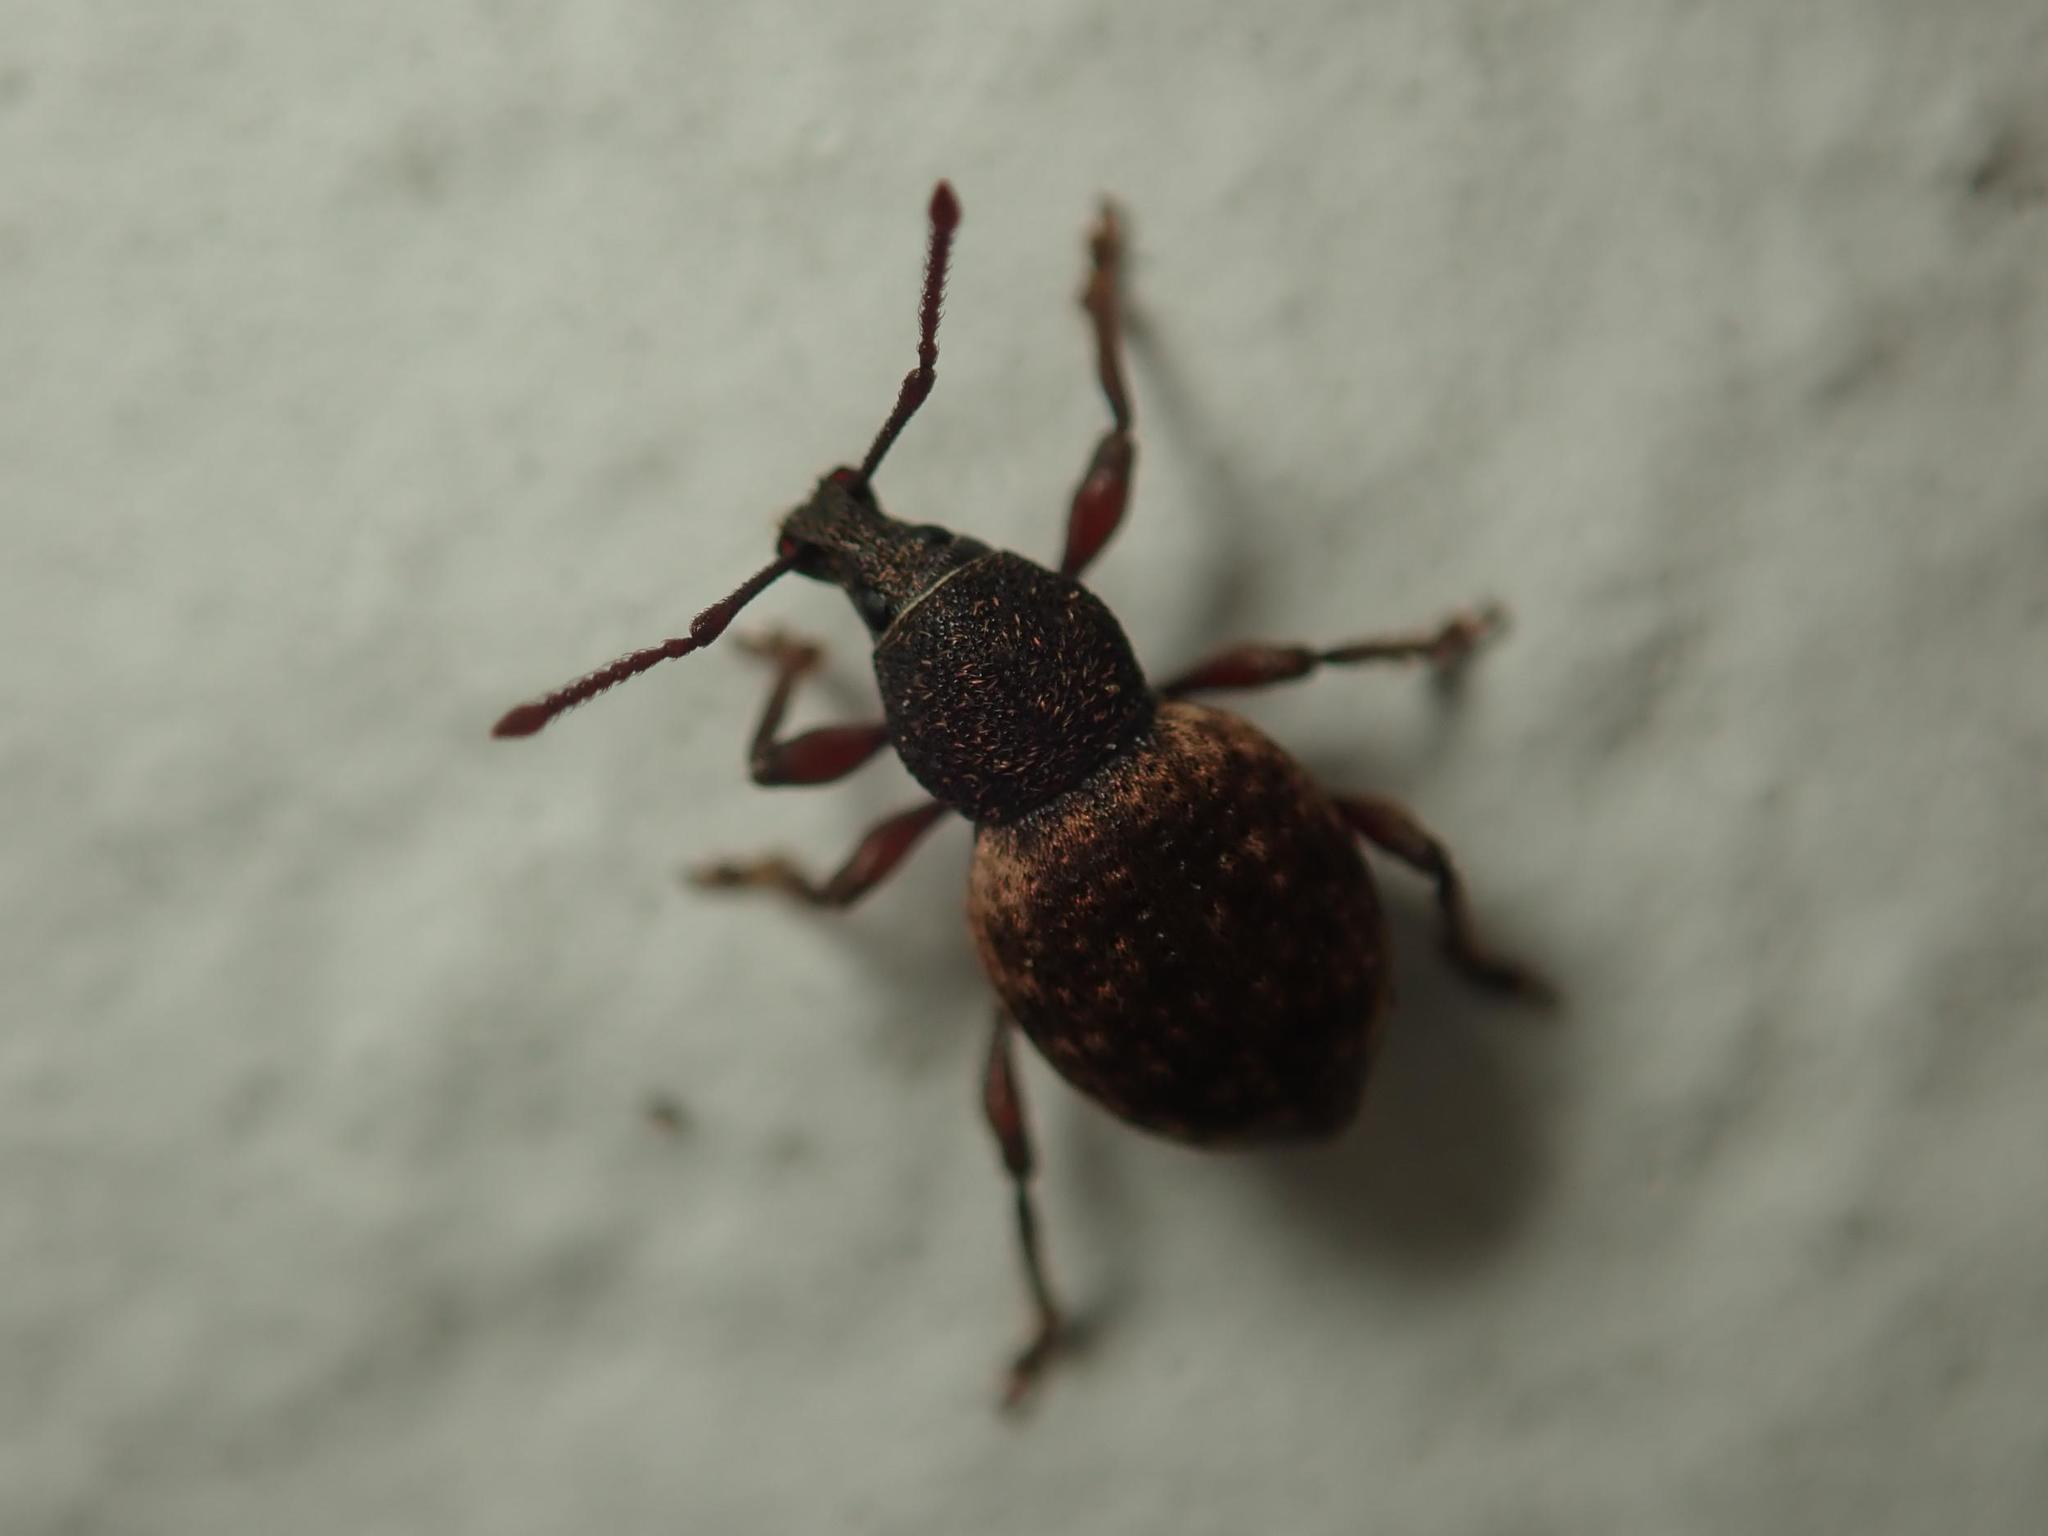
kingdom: Animalia
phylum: Arthropoda
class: Insecta
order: Coleoptera
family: Curculionidae
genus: Otiorhynchus
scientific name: Otiorhynchus raucus
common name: Weevil
